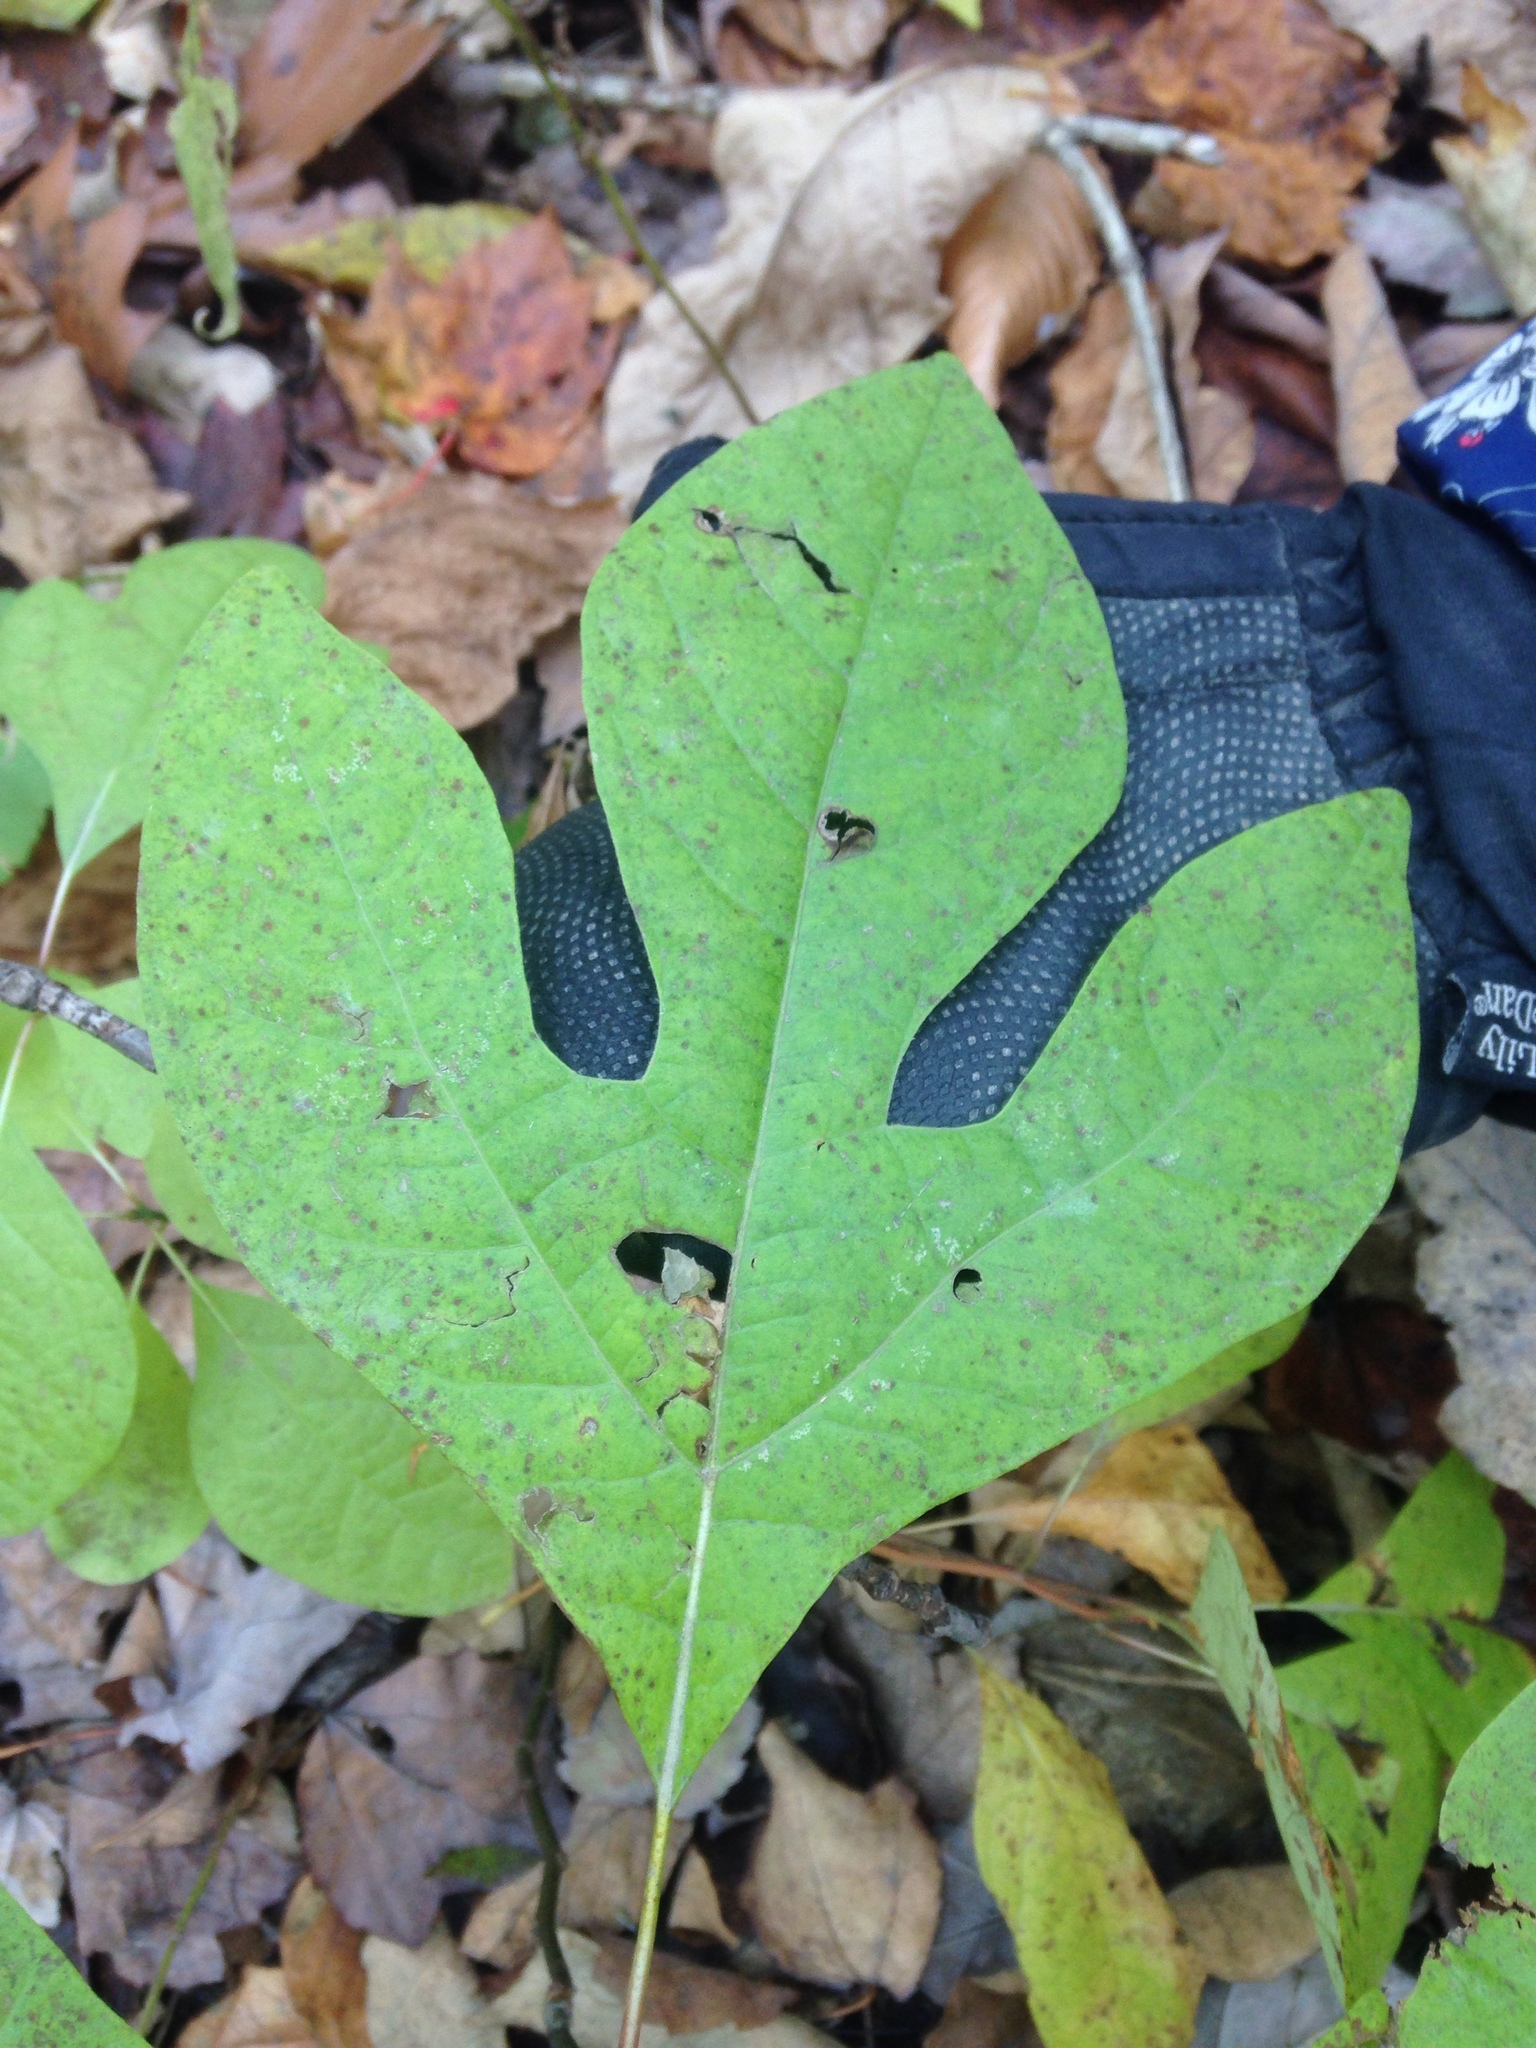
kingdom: Plantae
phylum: Tracheophyta
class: Magnoliopsida
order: Laurales
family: Lauraceae
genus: Sassafras
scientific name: Sassafras albidum
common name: Sassafras
